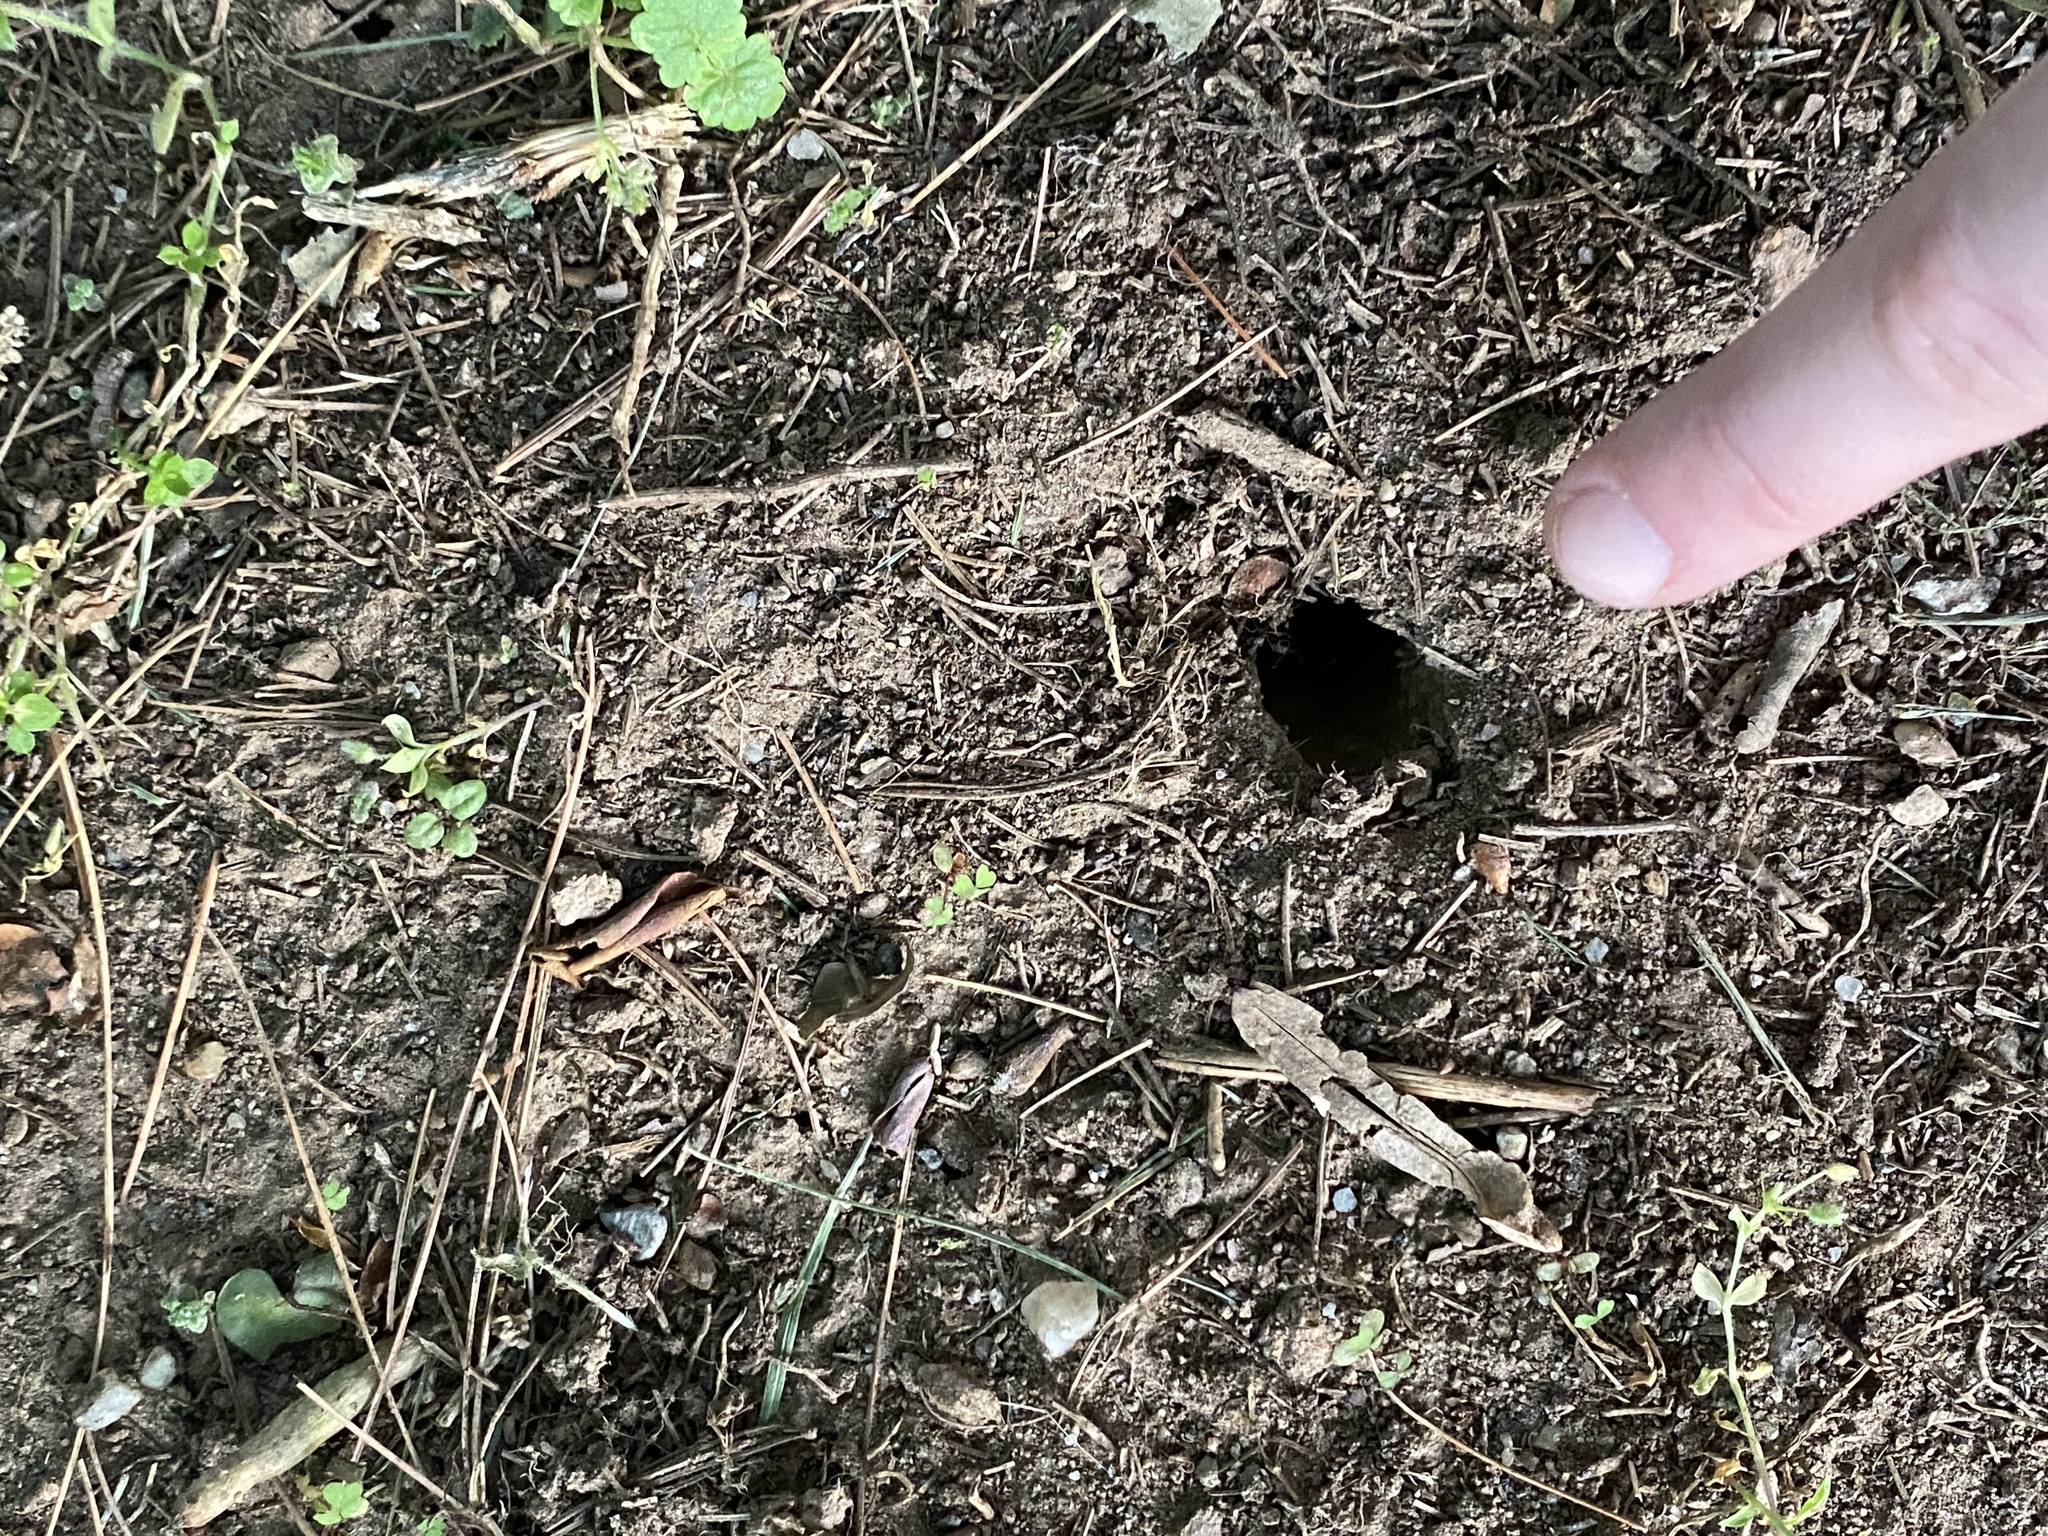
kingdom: Animalia
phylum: Arthropoda
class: Insecta
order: Hemiptera
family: Cicadidae
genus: Magicicada
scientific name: Magicicada
